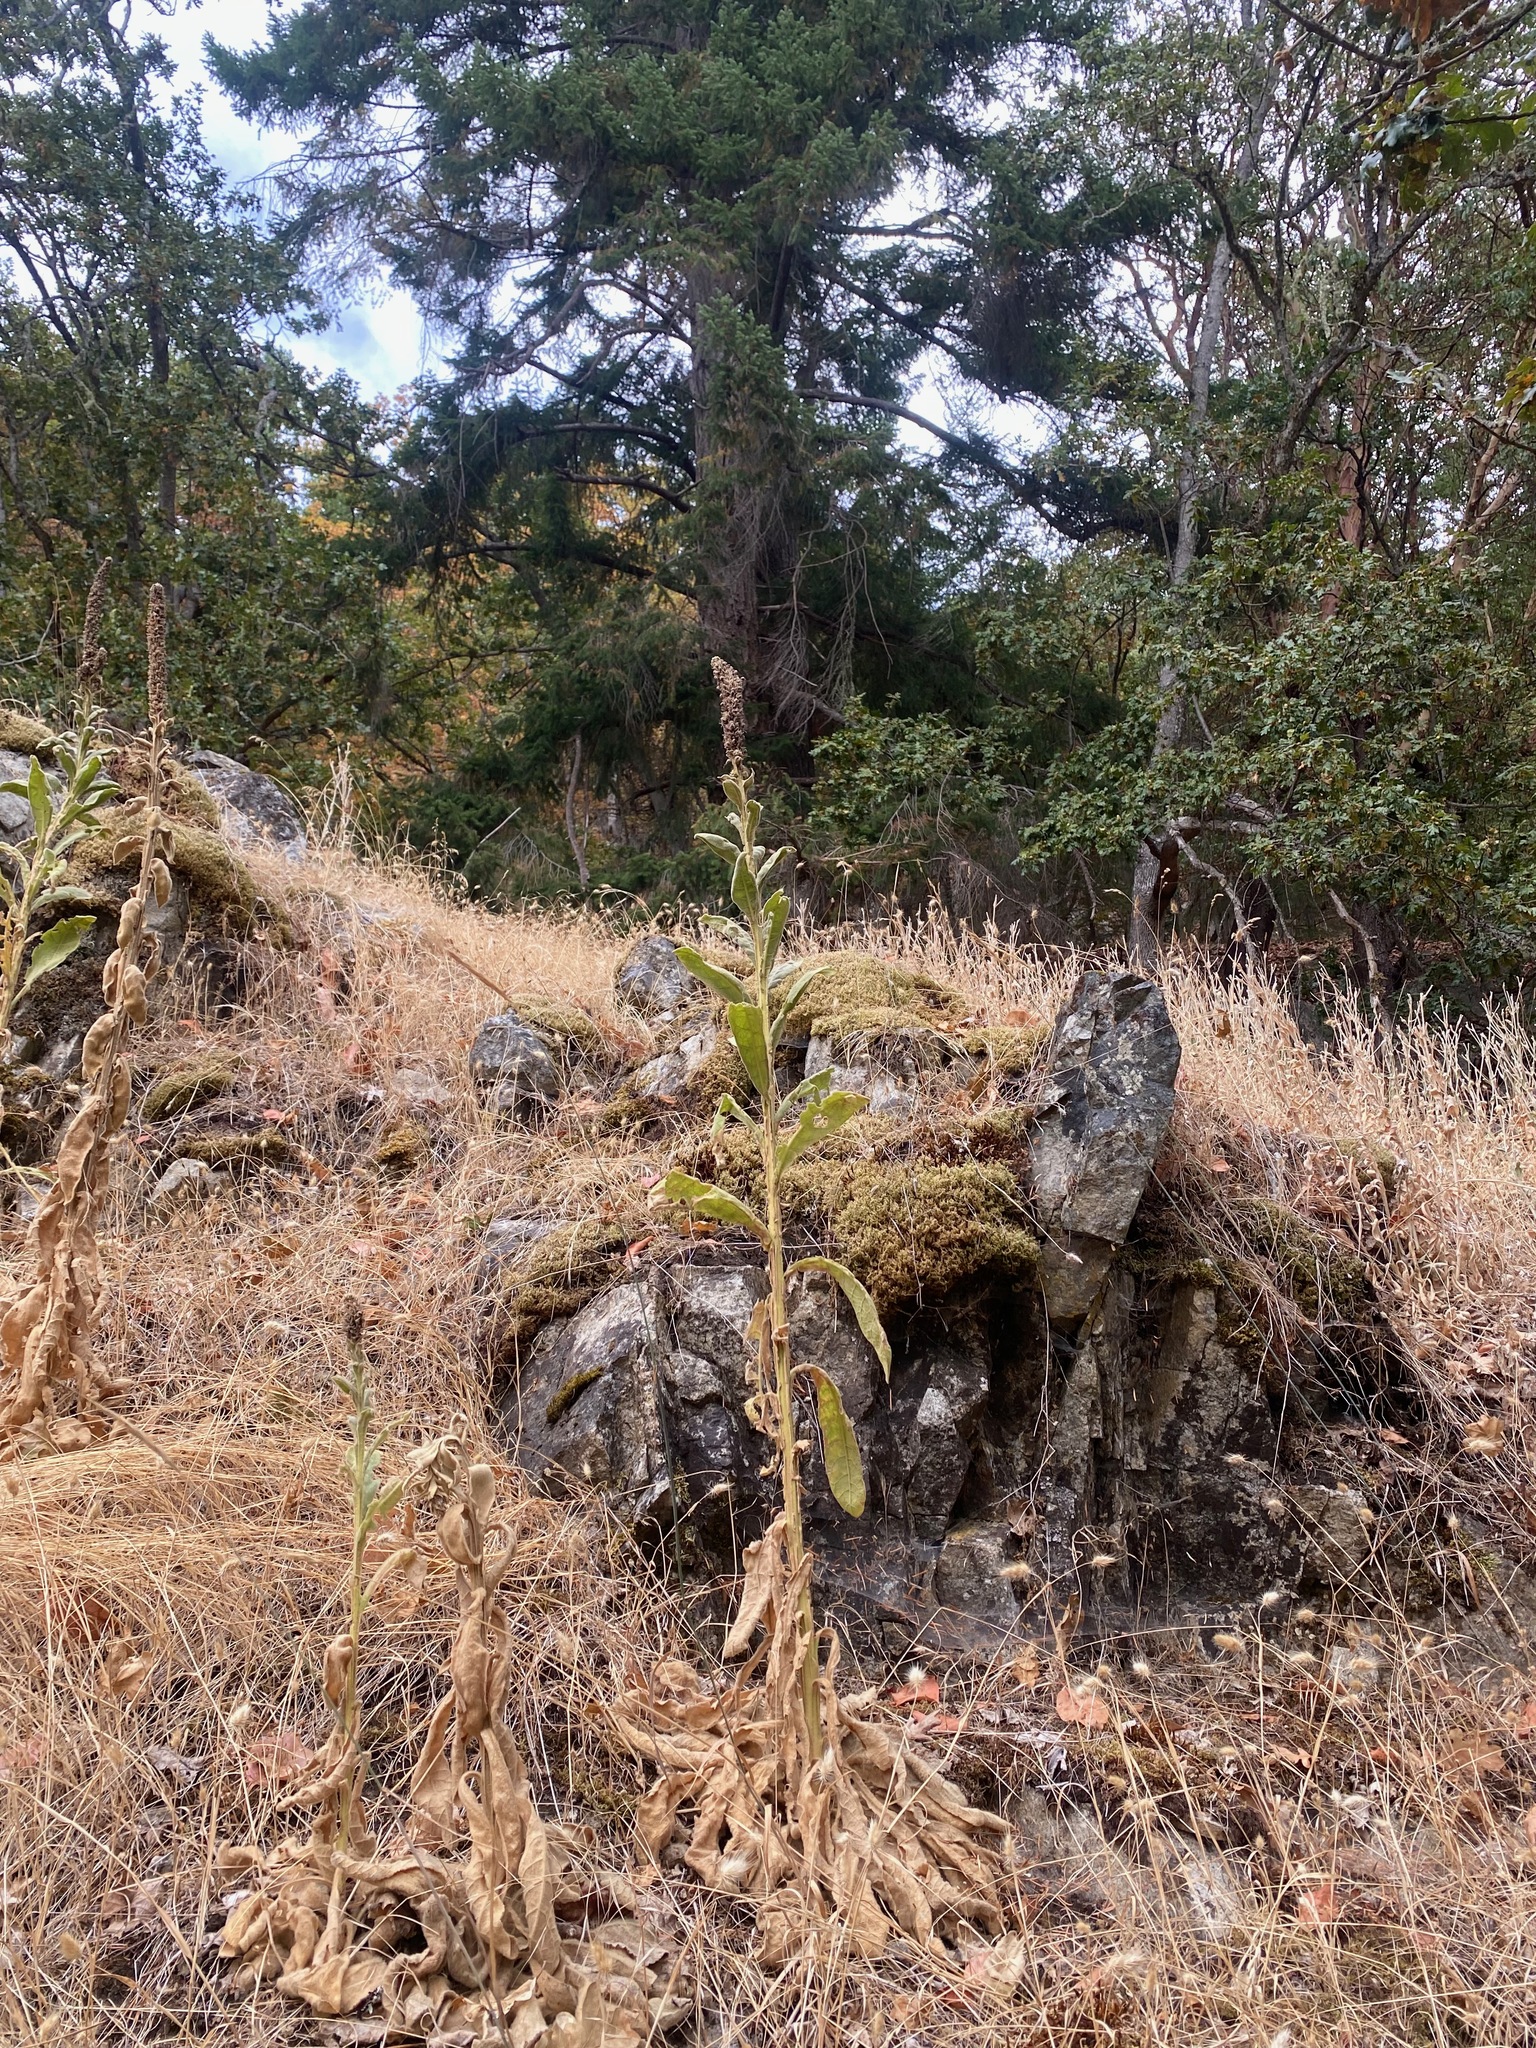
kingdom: Plantae
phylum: Tracheophyta
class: Magnoliopsida
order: Lamiales
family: Plantaginaceae
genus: Digitalis
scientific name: Digitalis purpurea
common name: Foxglove
